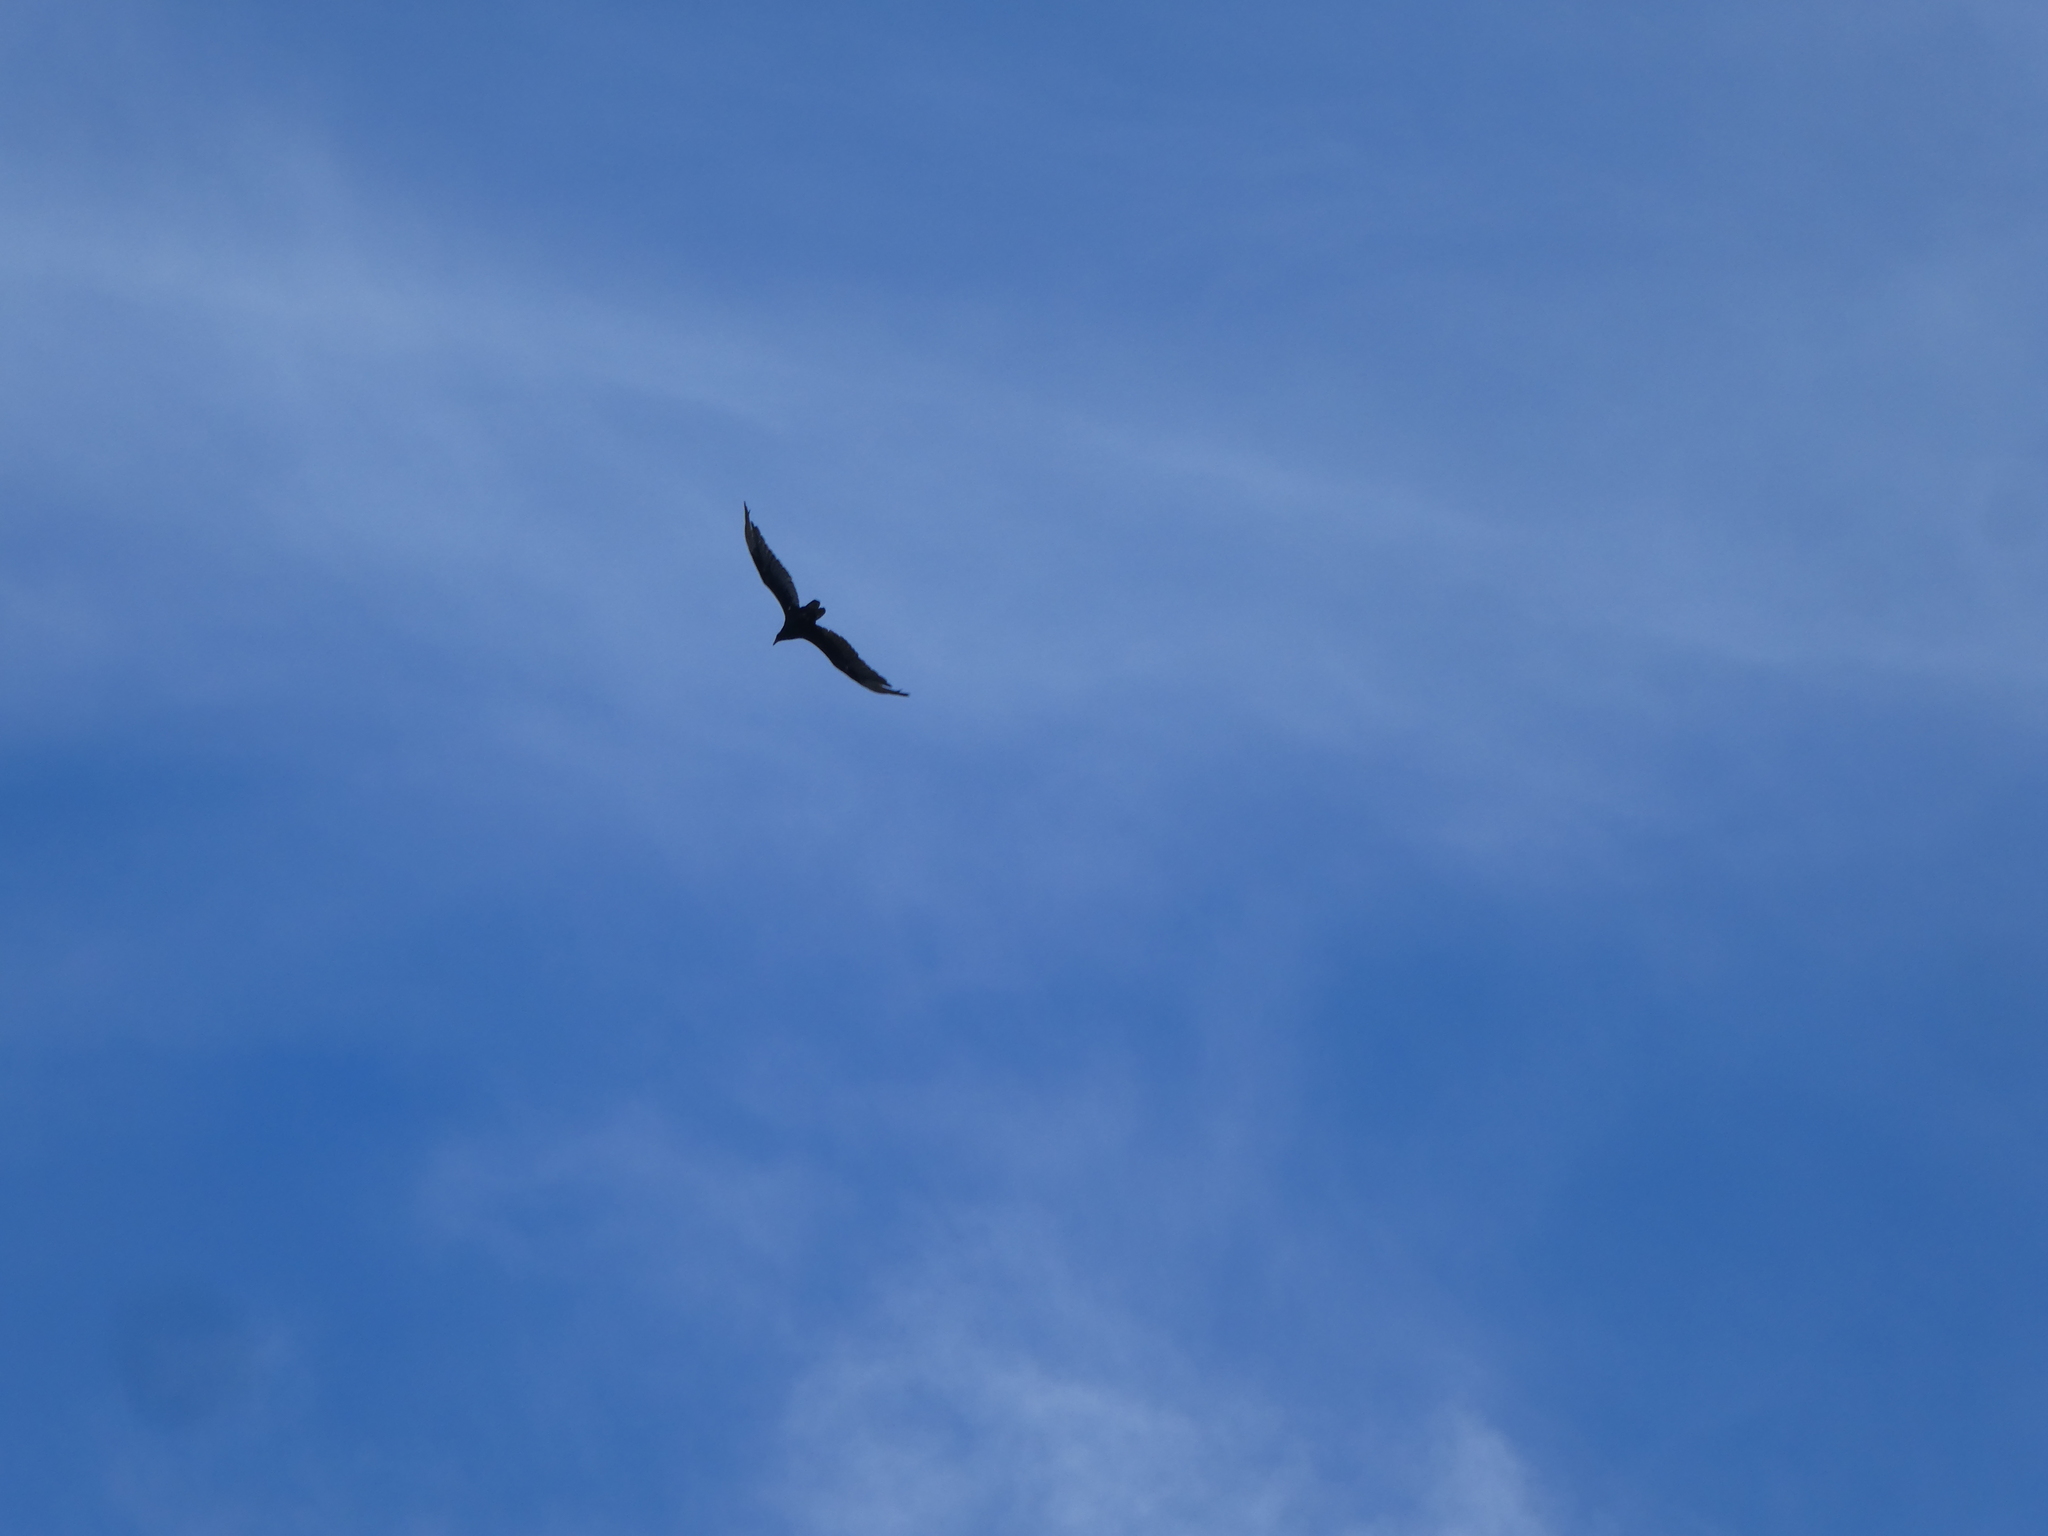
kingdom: Animalia
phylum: Chordata
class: Aves
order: Accipitriformes
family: Cathartidae
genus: Cathartes
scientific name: Cathartes aura
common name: Turkey vulture
